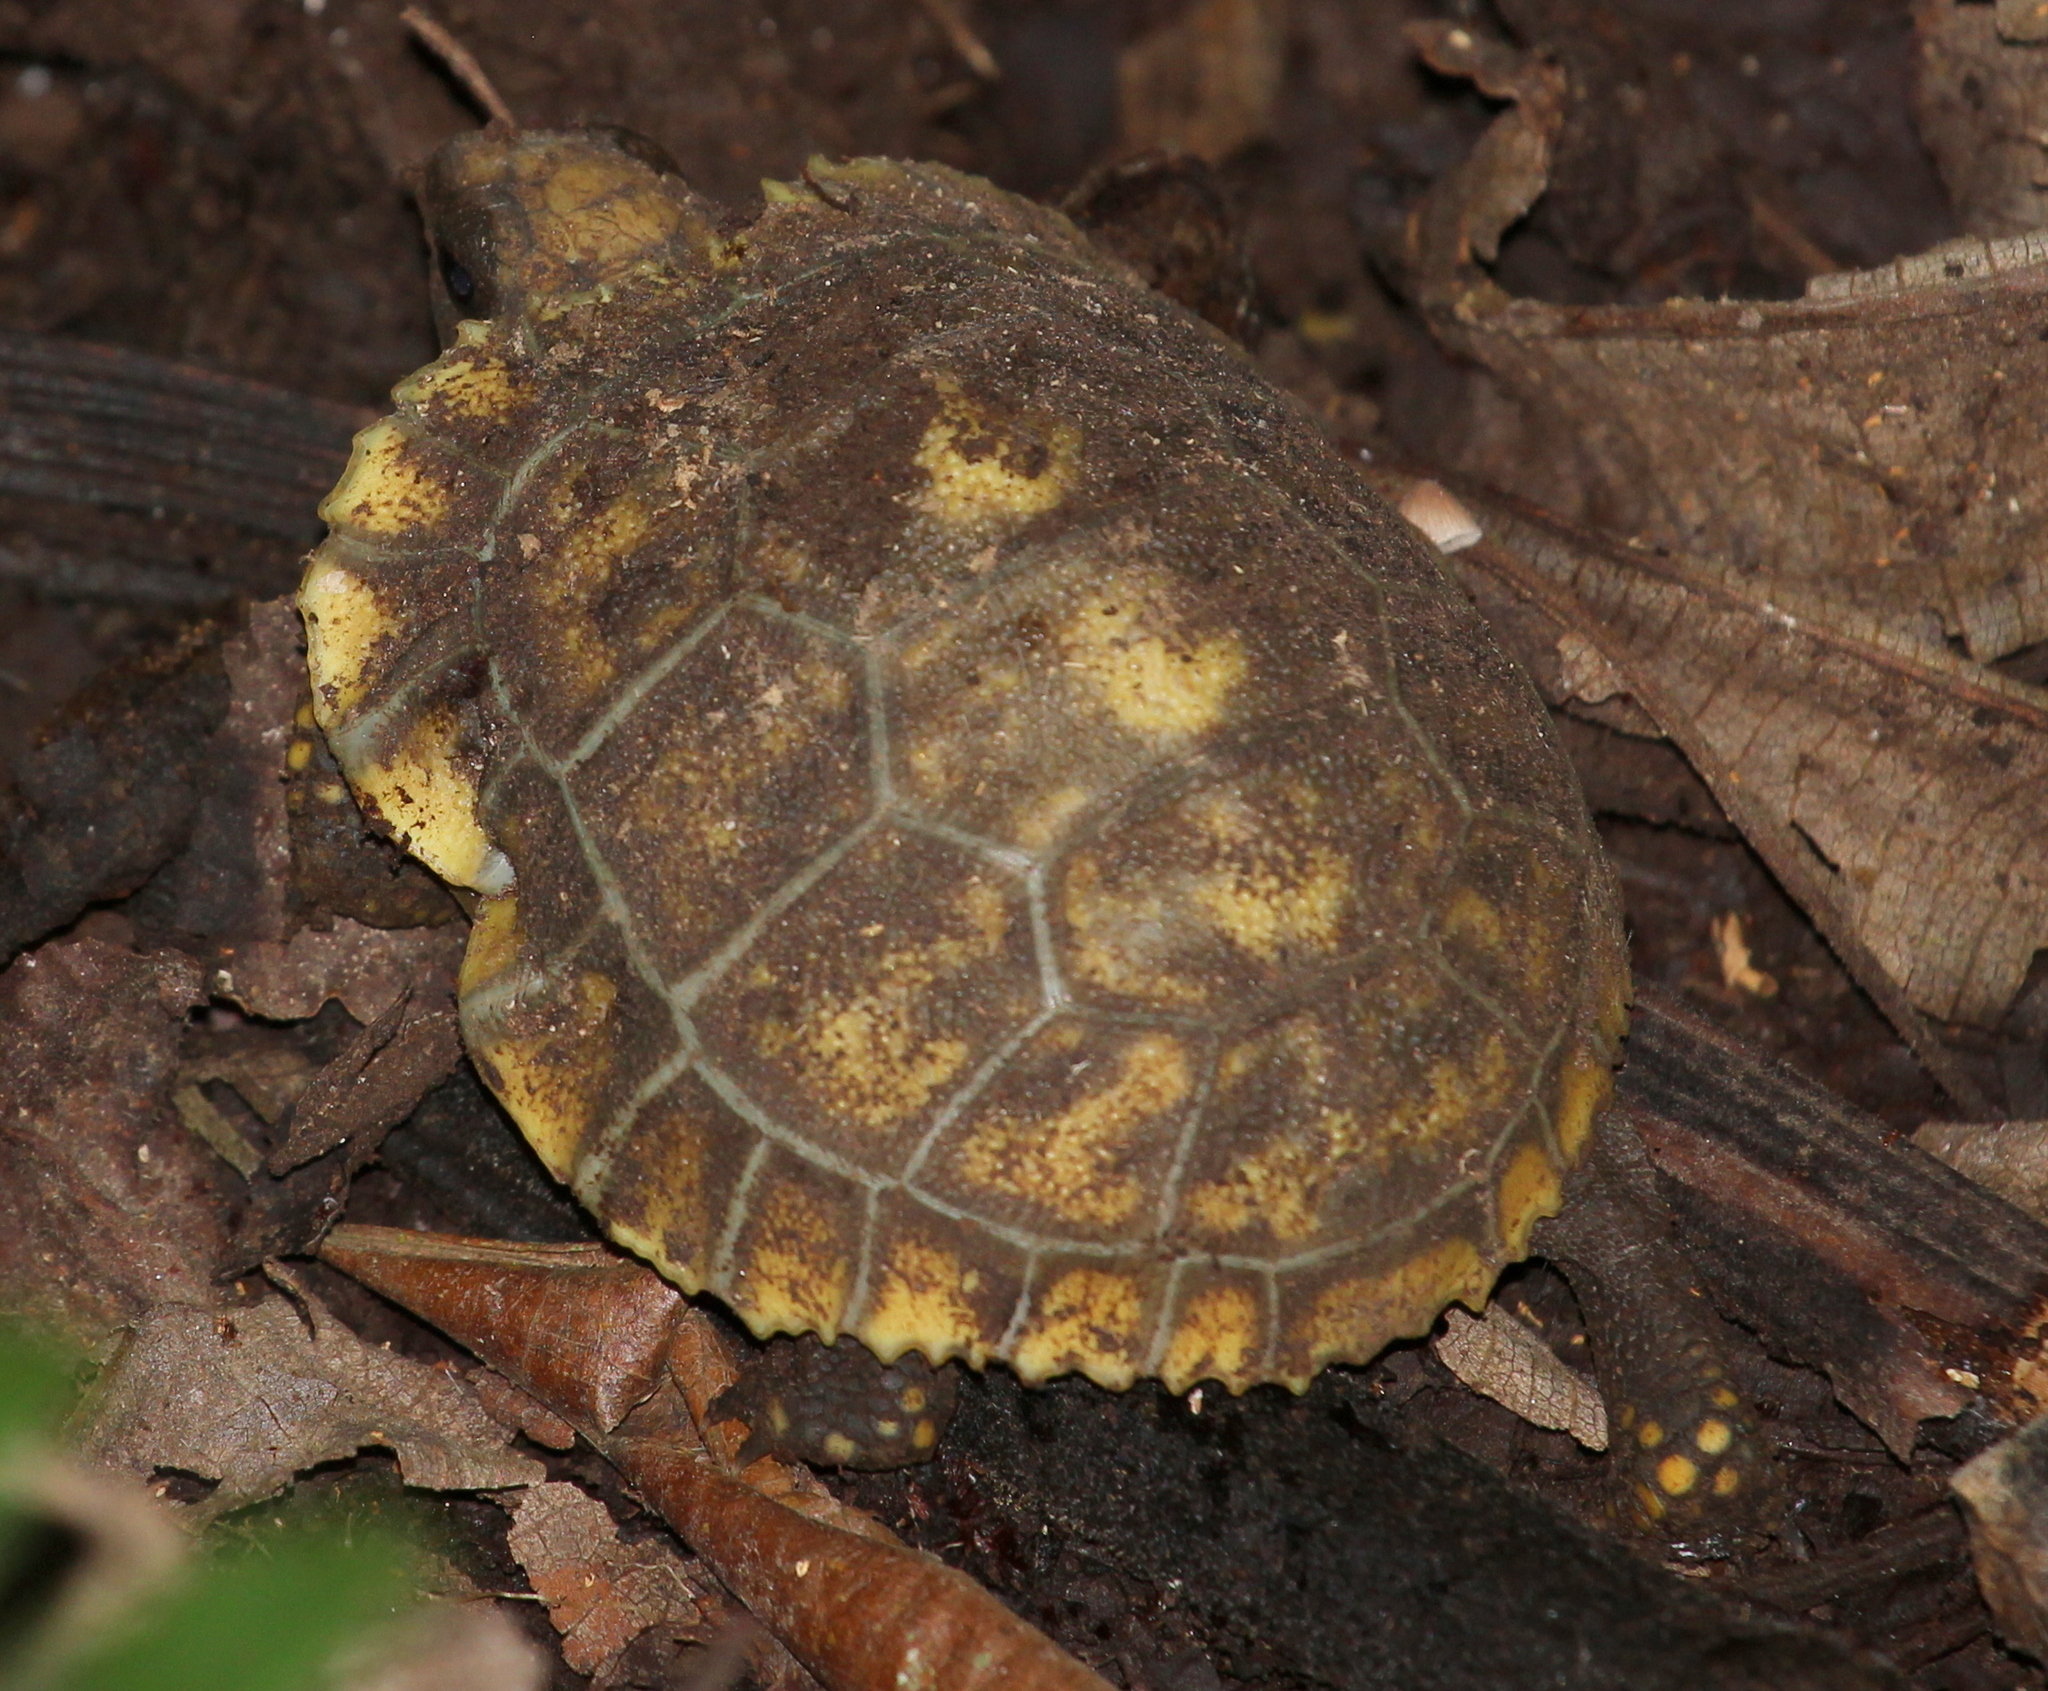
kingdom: Animalia
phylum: Chordata
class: Testudines
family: Testudinidae
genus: Chelonoidis
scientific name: Chelonoidis denticulatus
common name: Yellow-footed tortoise
